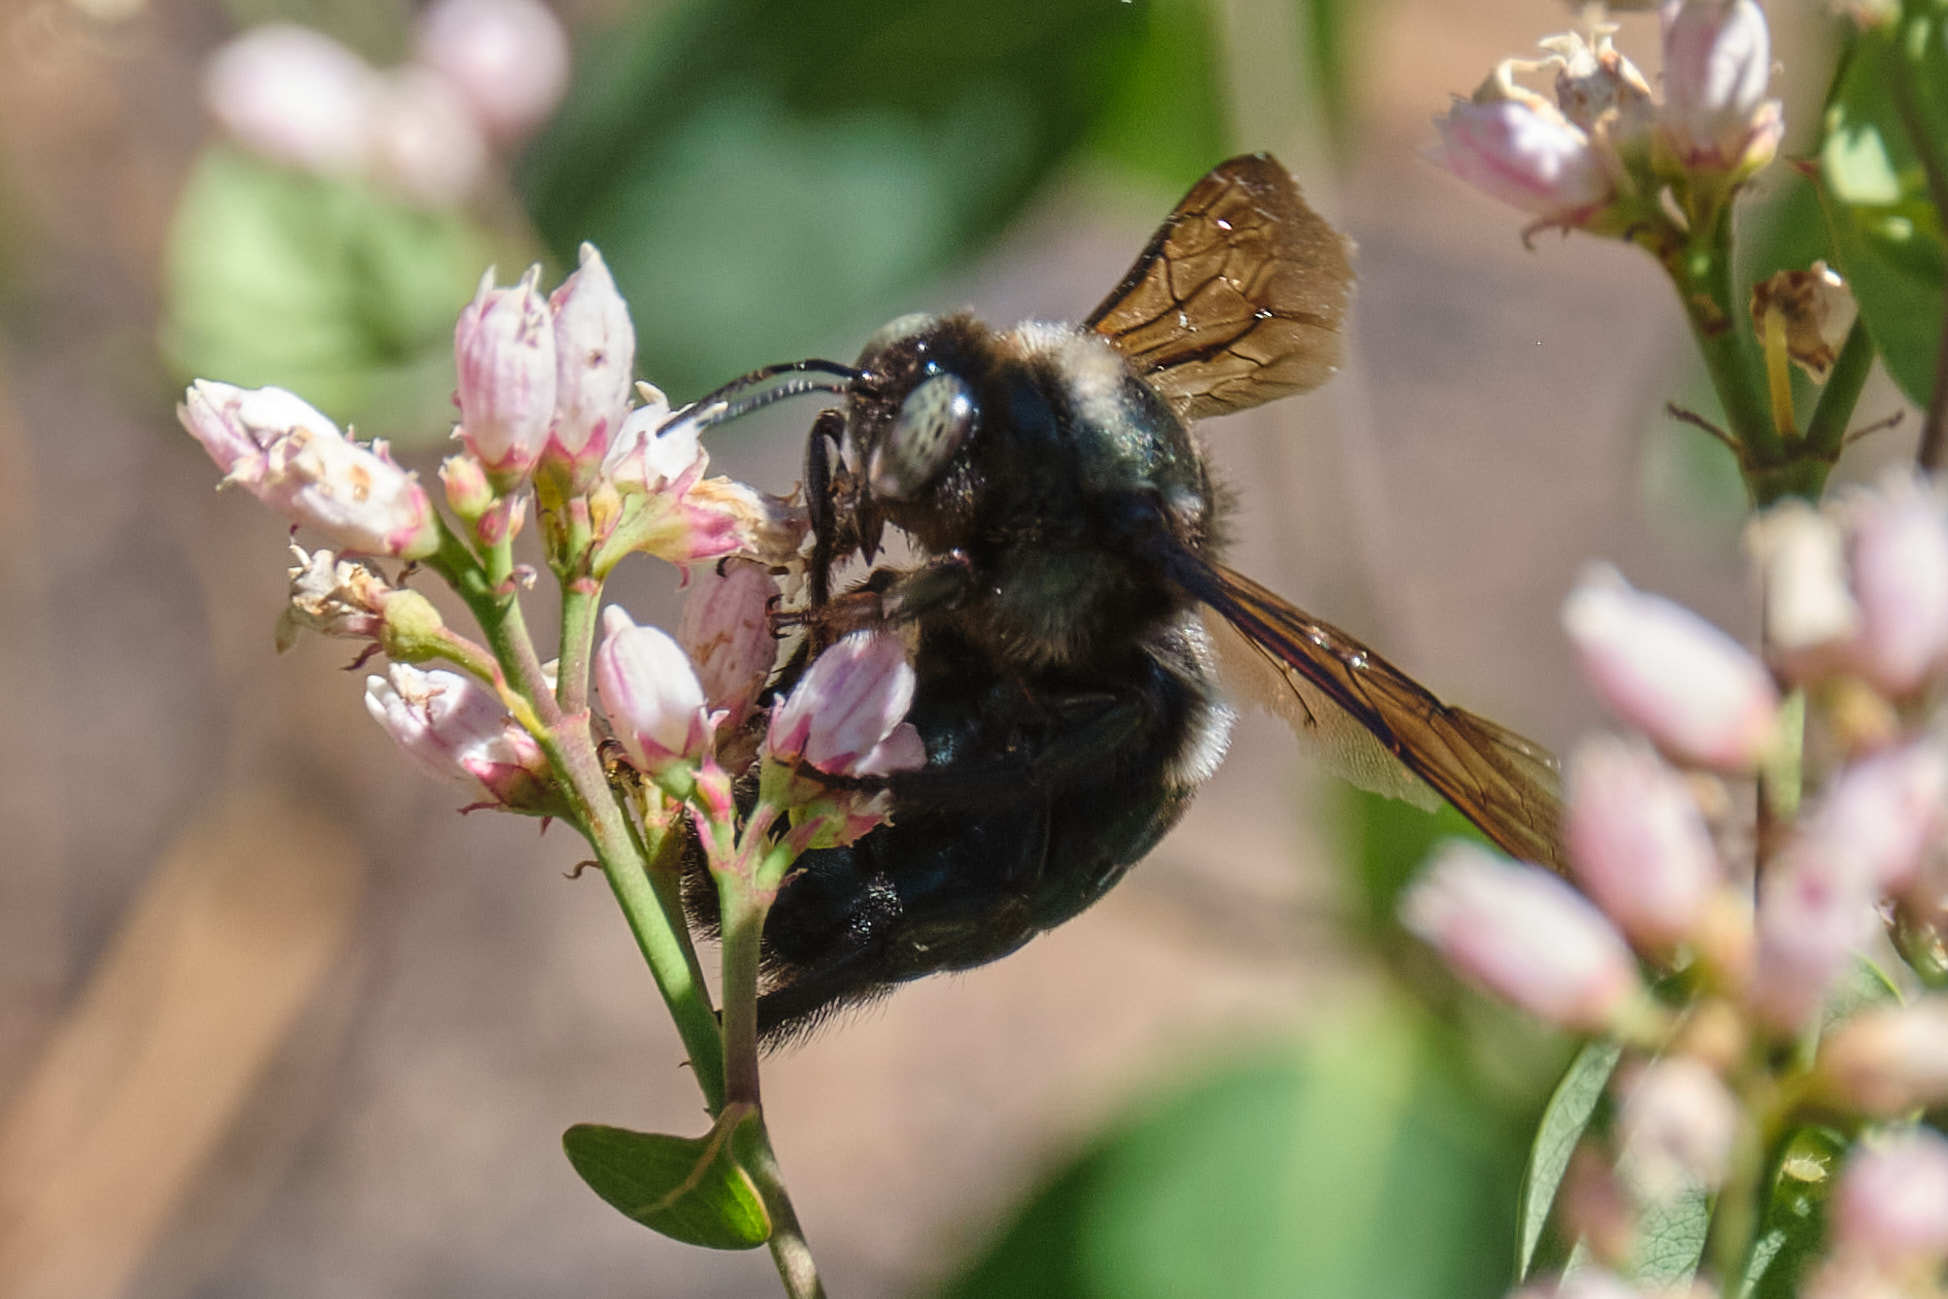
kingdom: Animalia
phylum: Arthropoda
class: Insecta
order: Hymenoptera
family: Apidae
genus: Xylocopa
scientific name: Xylocopa californica
